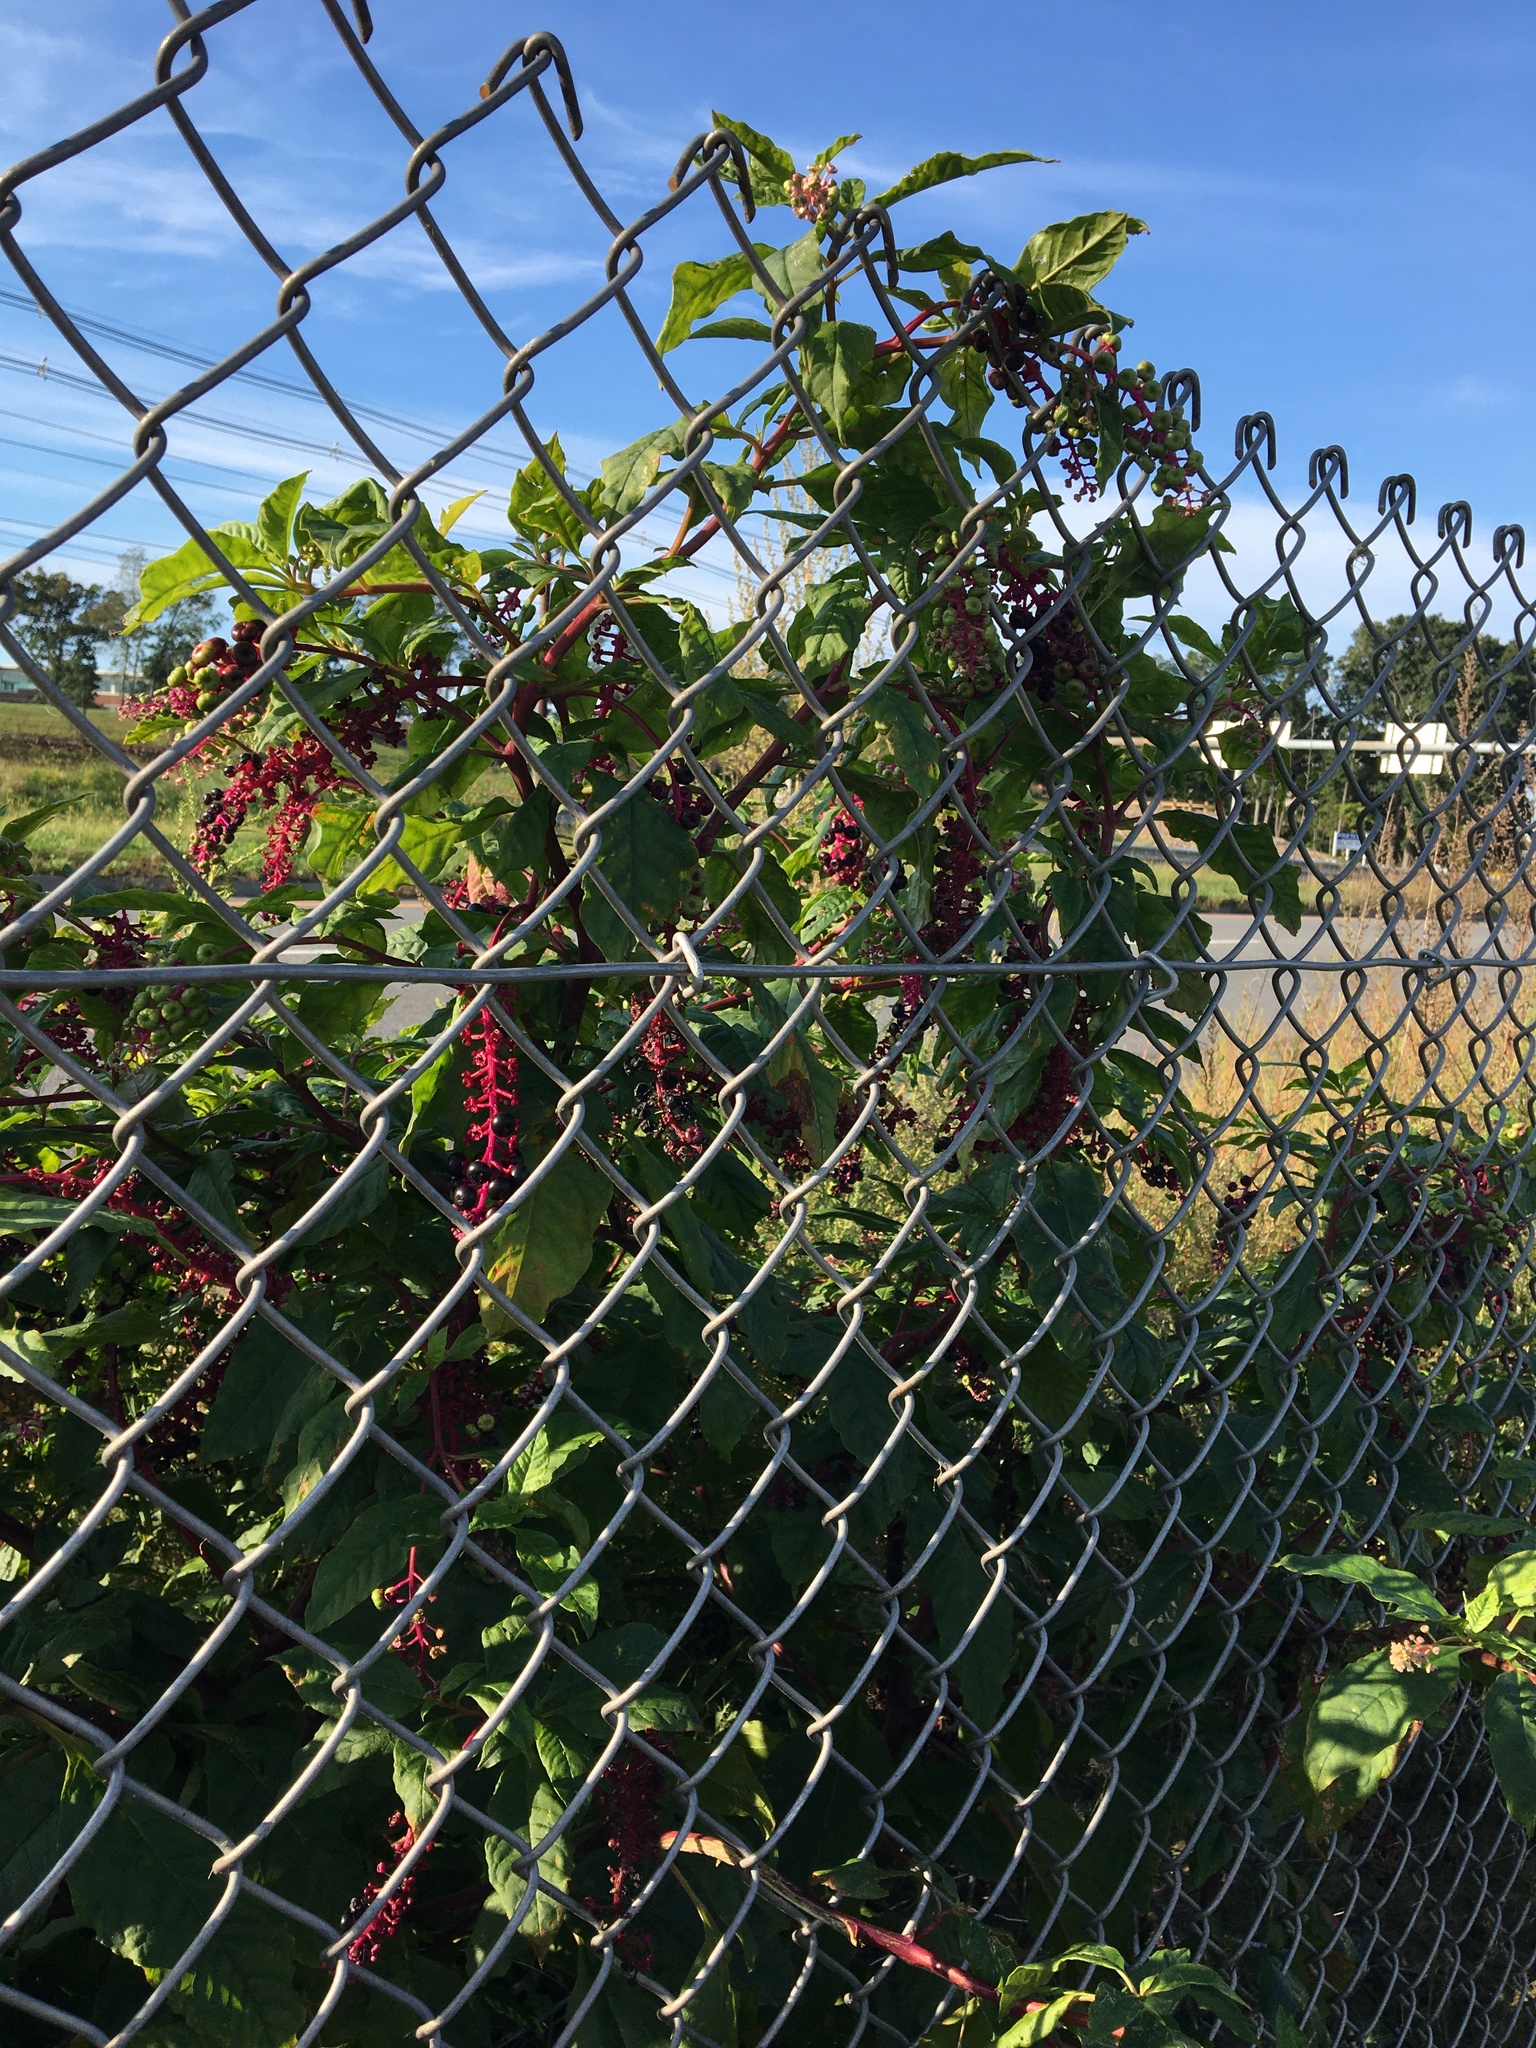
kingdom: Plantae
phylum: Tracheophyta
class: Magnoliopsida
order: Caryophyllales
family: Phytolaccaceae
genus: Phytolacca
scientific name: Phytolacca americana
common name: American pokeweed
